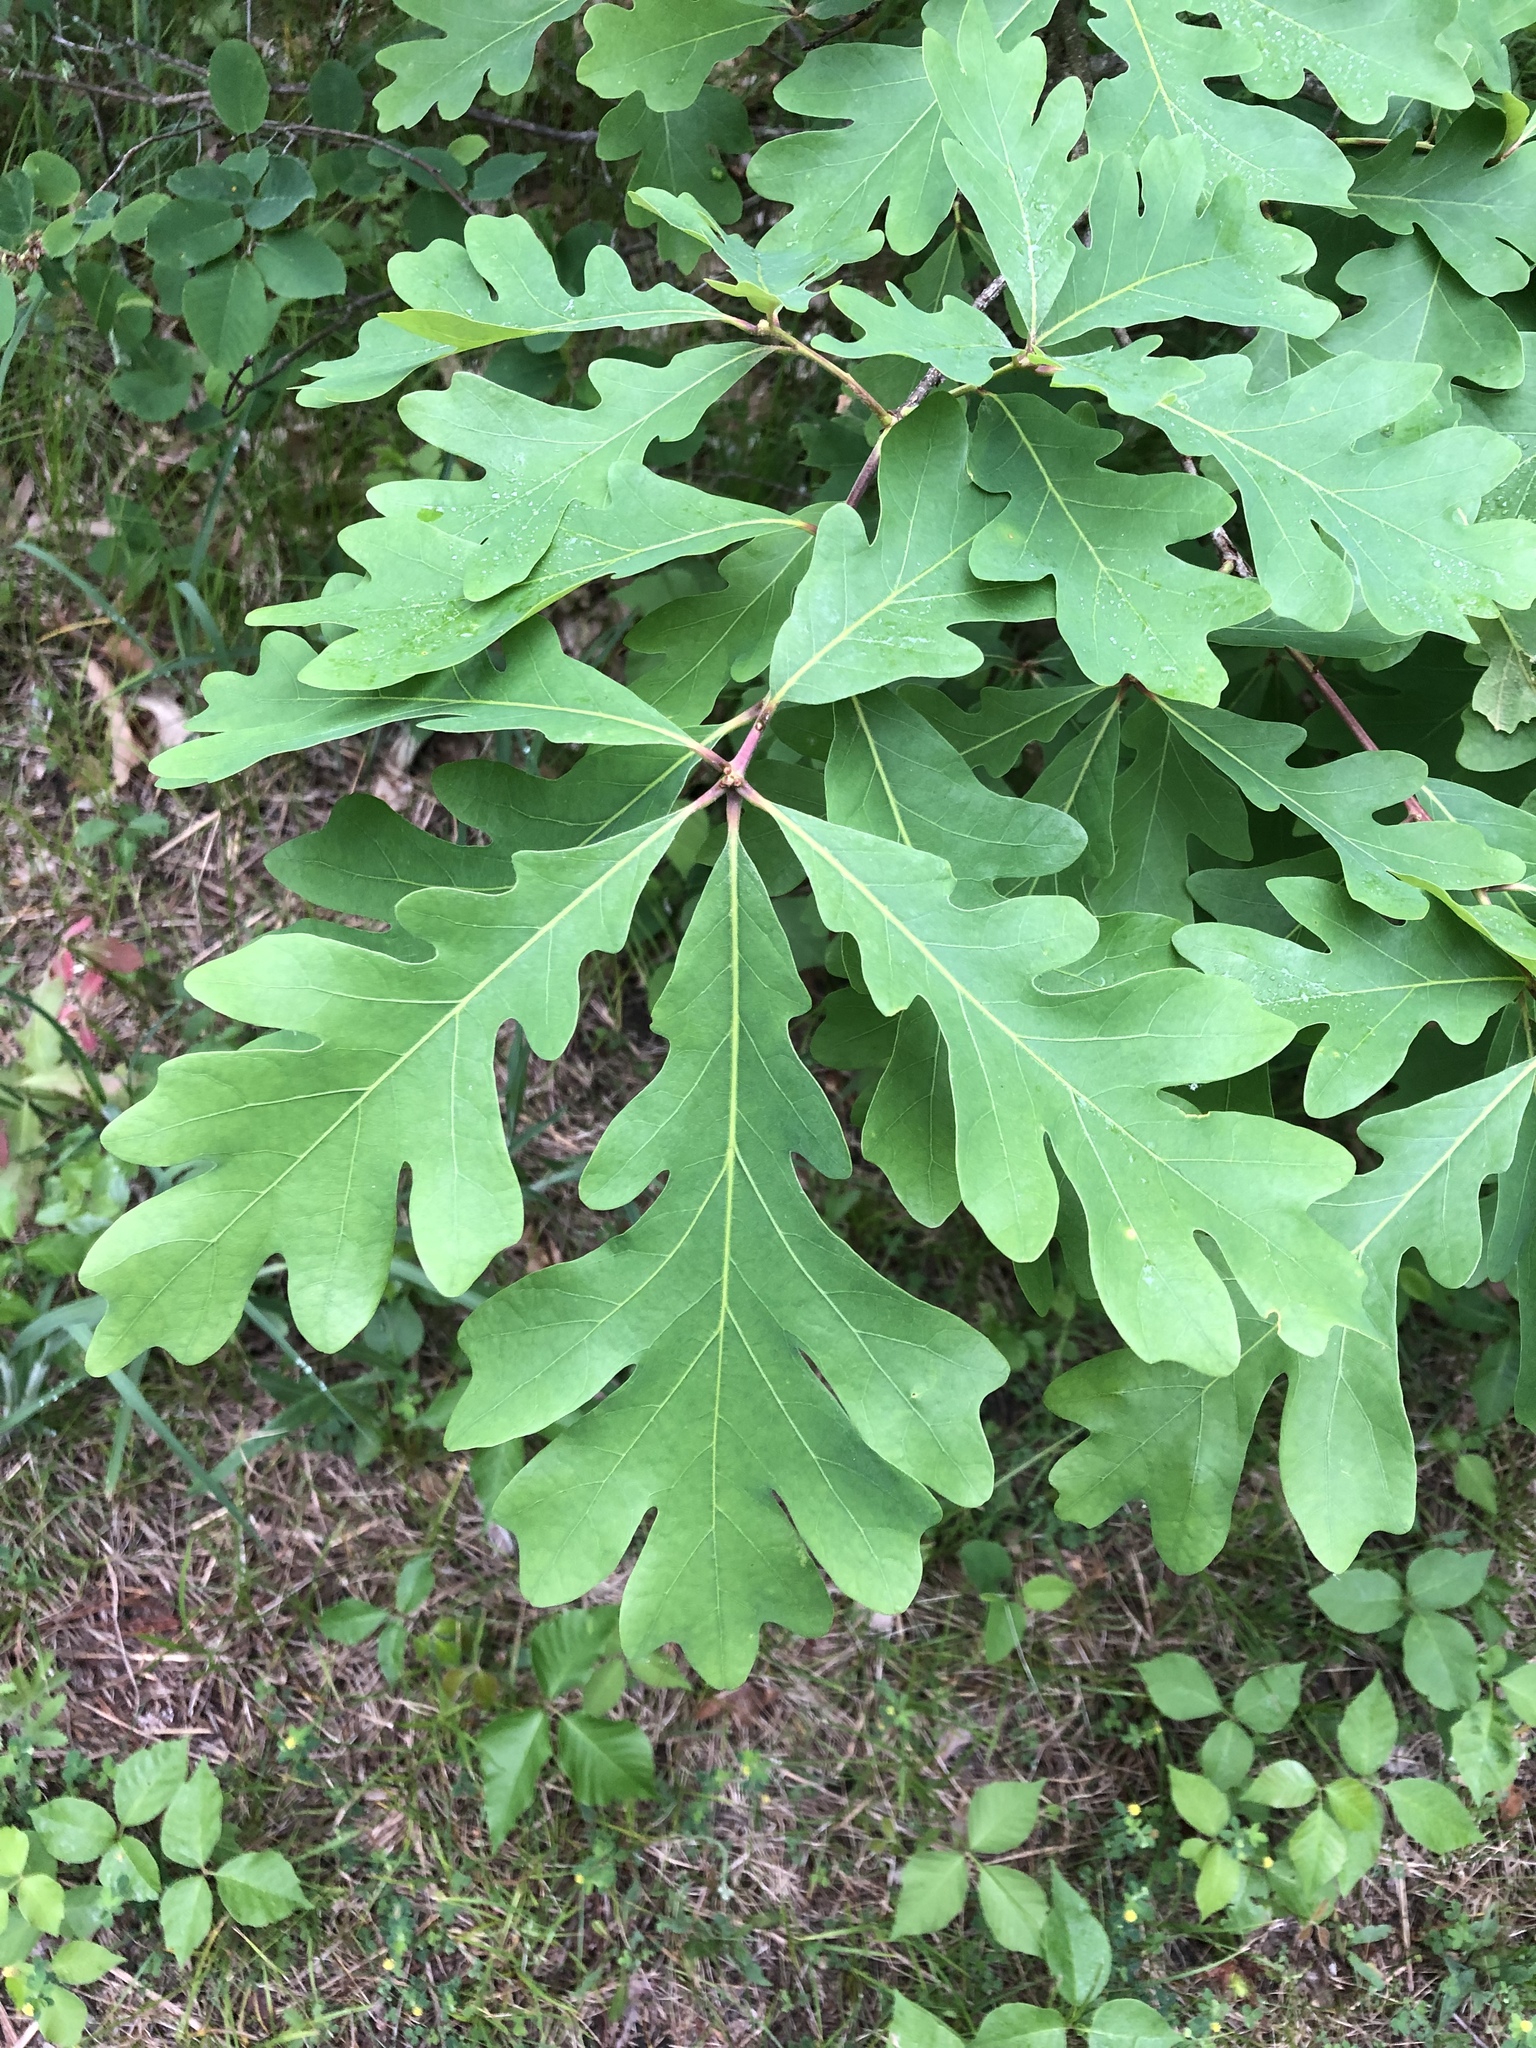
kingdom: Plantae
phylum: Tracheophyta
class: Magnoliopsida
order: Fagales
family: Fagaceae
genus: Quercus
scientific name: Quercus alba
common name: White oak
